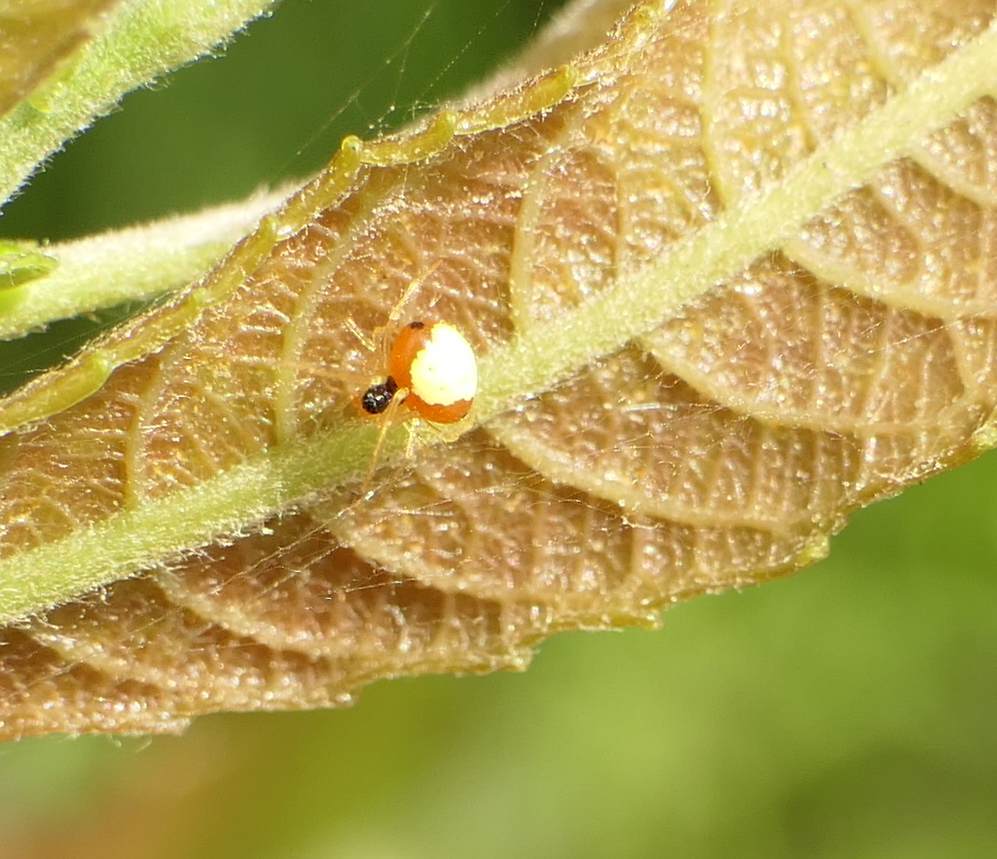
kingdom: Animalia
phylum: Arthropoda
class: Arachnida
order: Araneae
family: Theridiidae
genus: Theridula
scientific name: Theridula emertoni
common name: Emerton's bitubercled cobweaver
